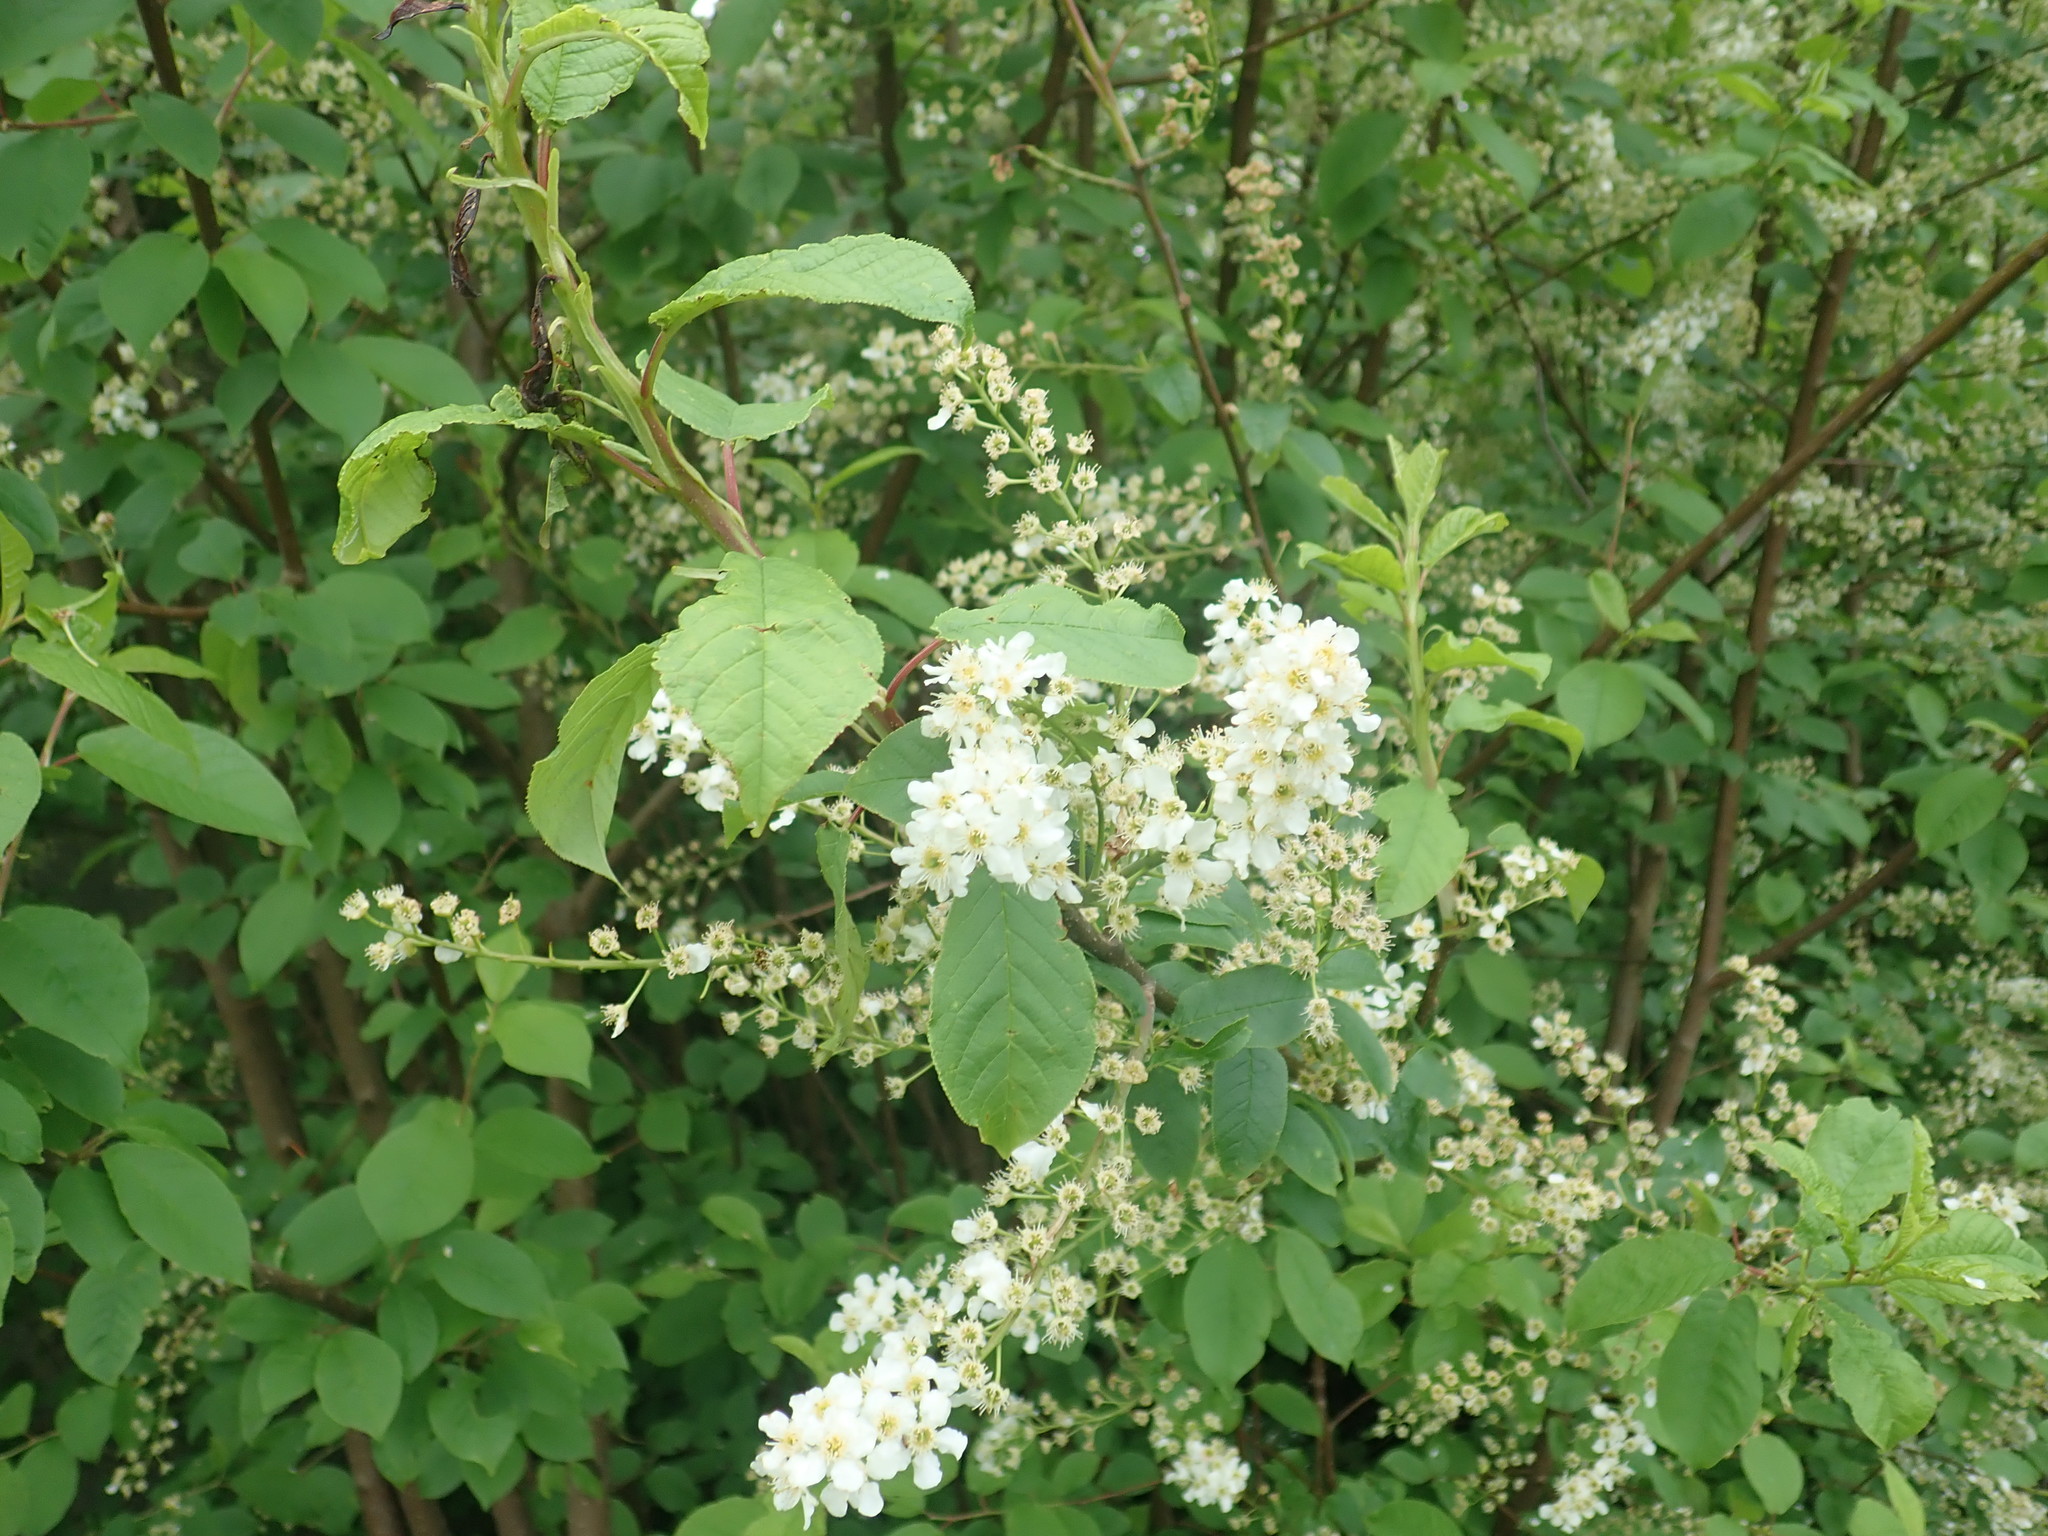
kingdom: Plantae
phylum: Tracheophyta
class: Magnoliopsida
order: Rosales
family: Rosaceae
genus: Prunus
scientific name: Prunus padus
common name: Bird cherry
